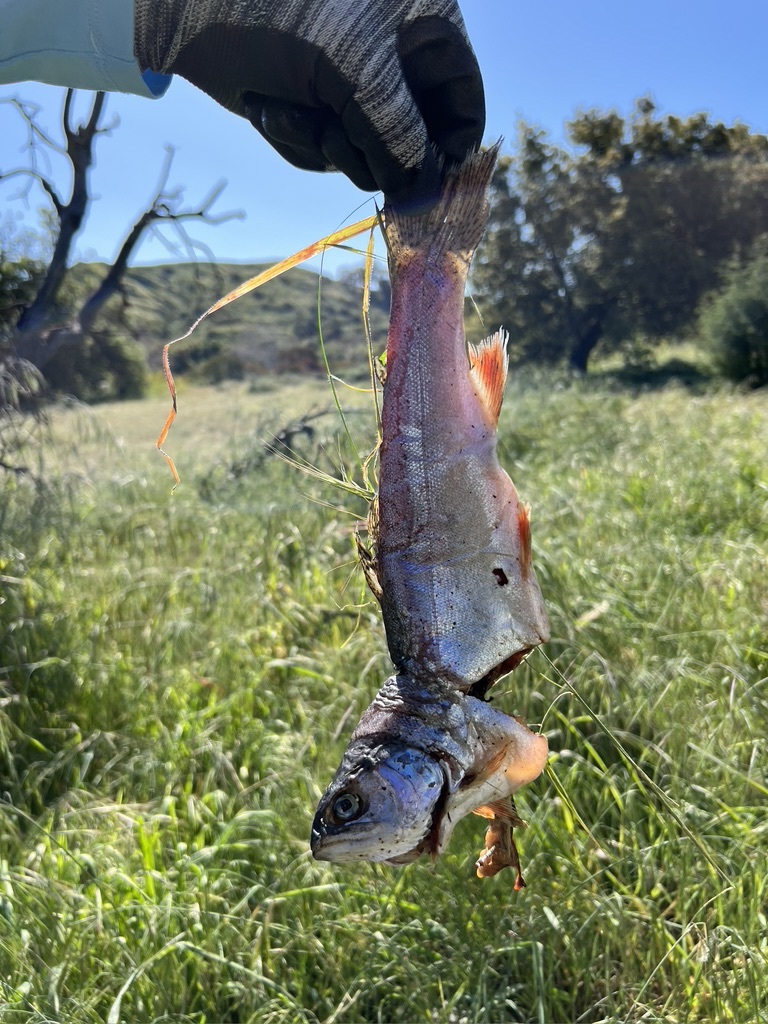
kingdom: Animalia
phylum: Chordata
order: Salmoniformes
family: Salmonidae
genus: Oncorhynchus
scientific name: Oncorhynchus mykiss
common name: Rainbow trout
